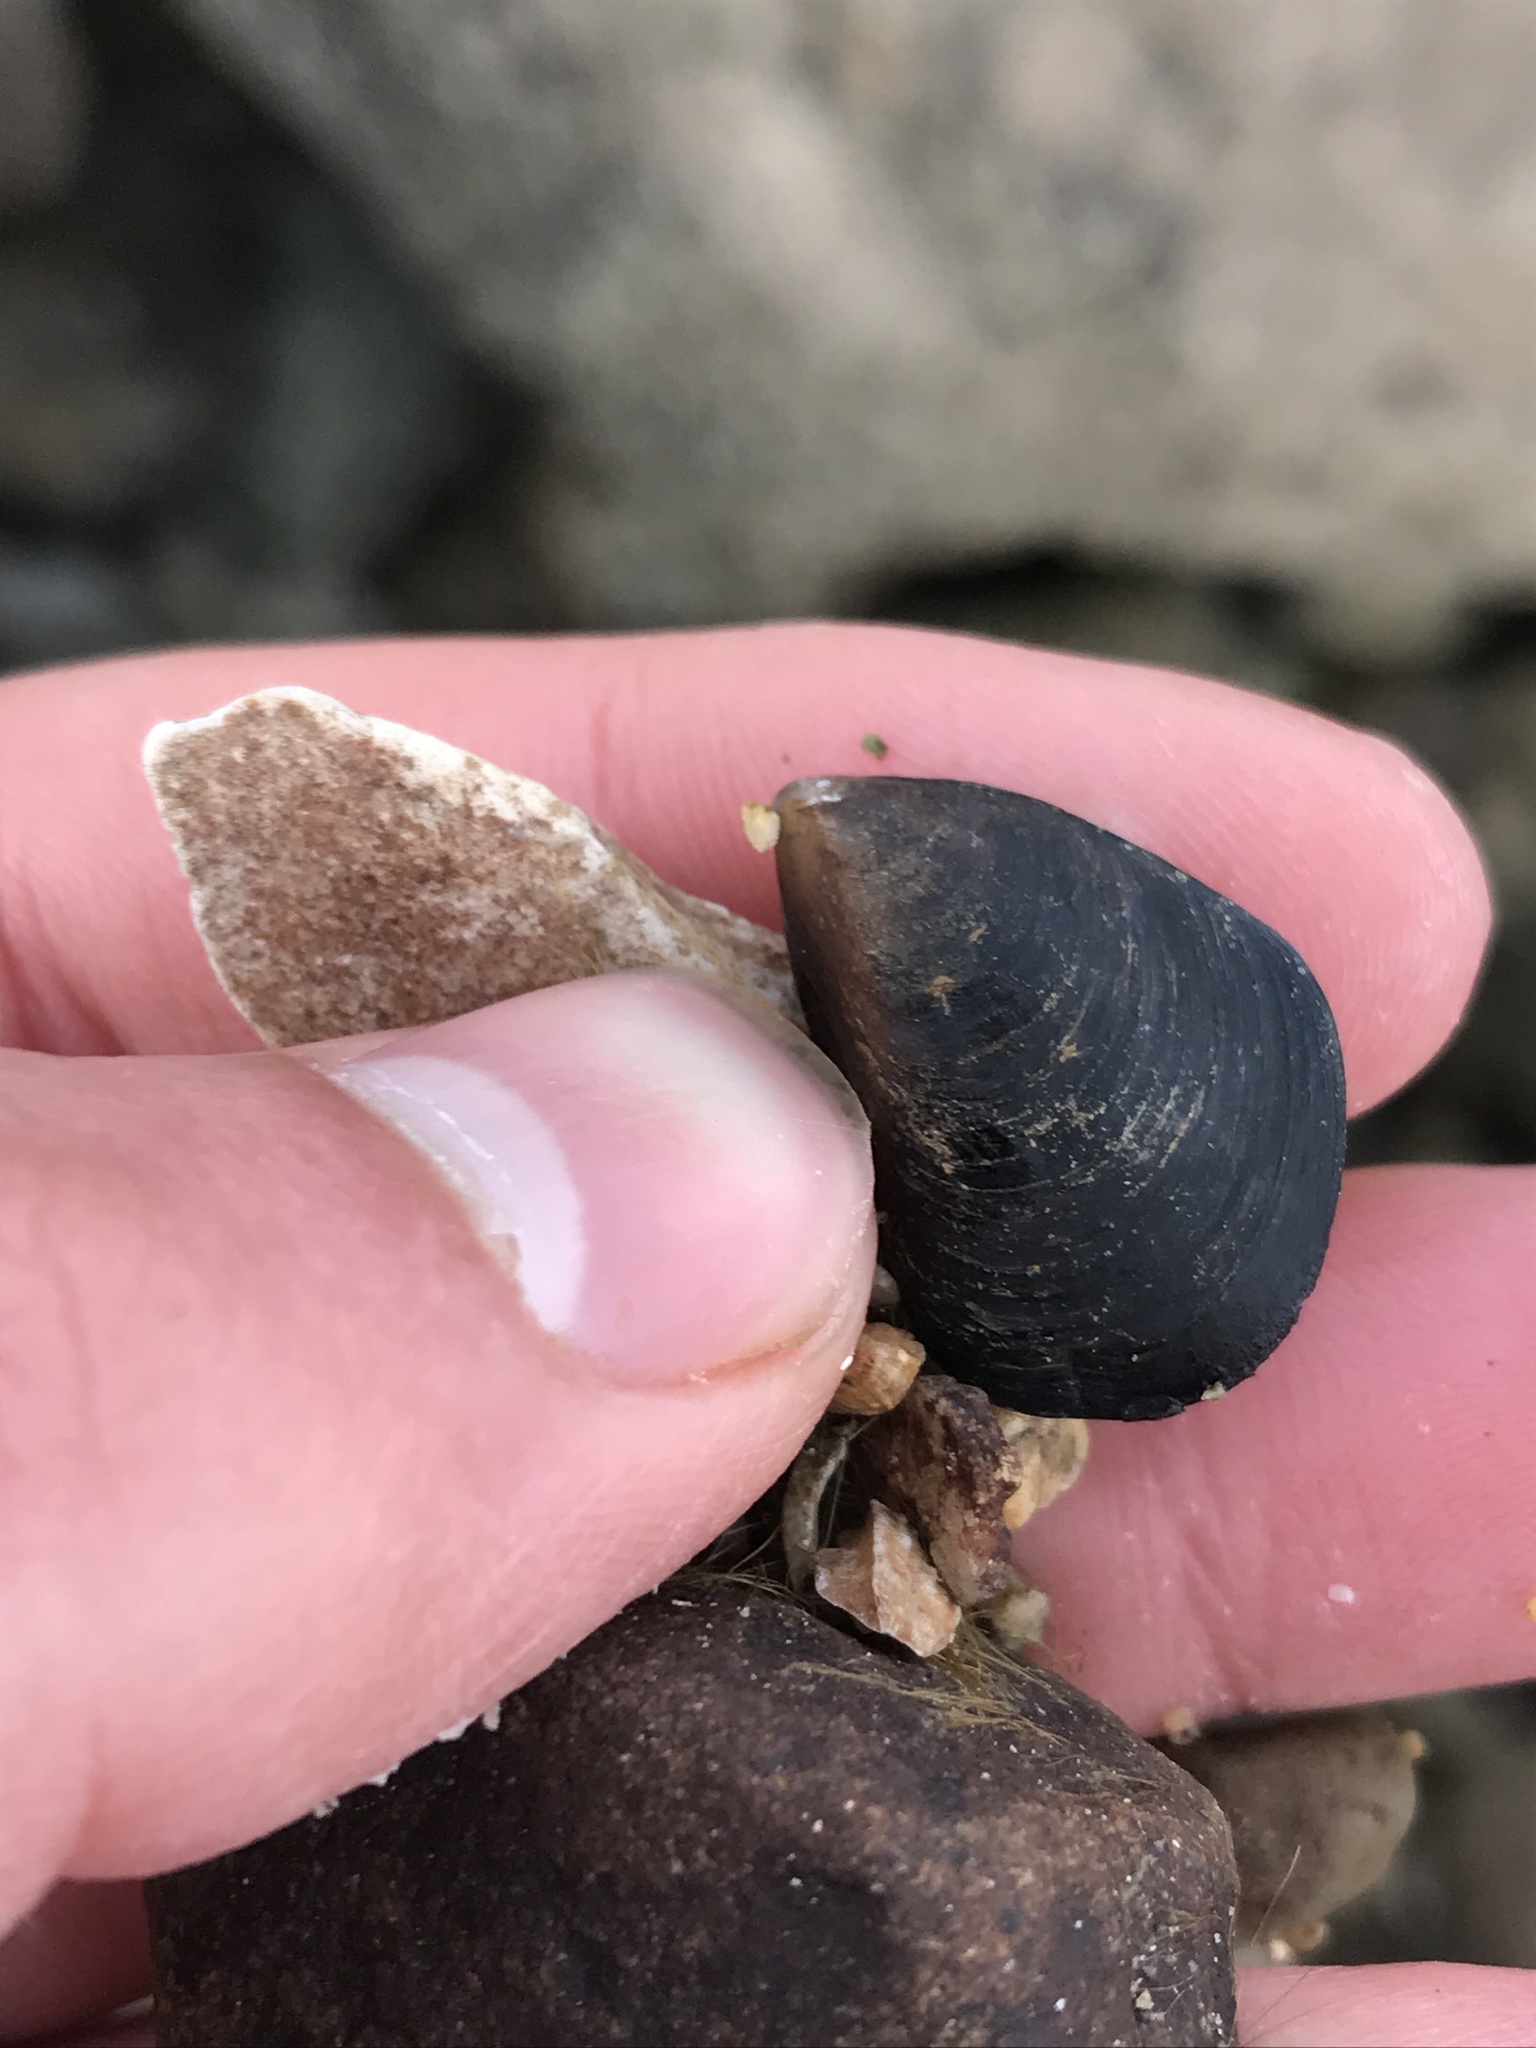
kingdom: Animalia
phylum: Mollusca
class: Bivalvia
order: Mytilida
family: Mytilidae
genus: Mytilus
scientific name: Mytilus
